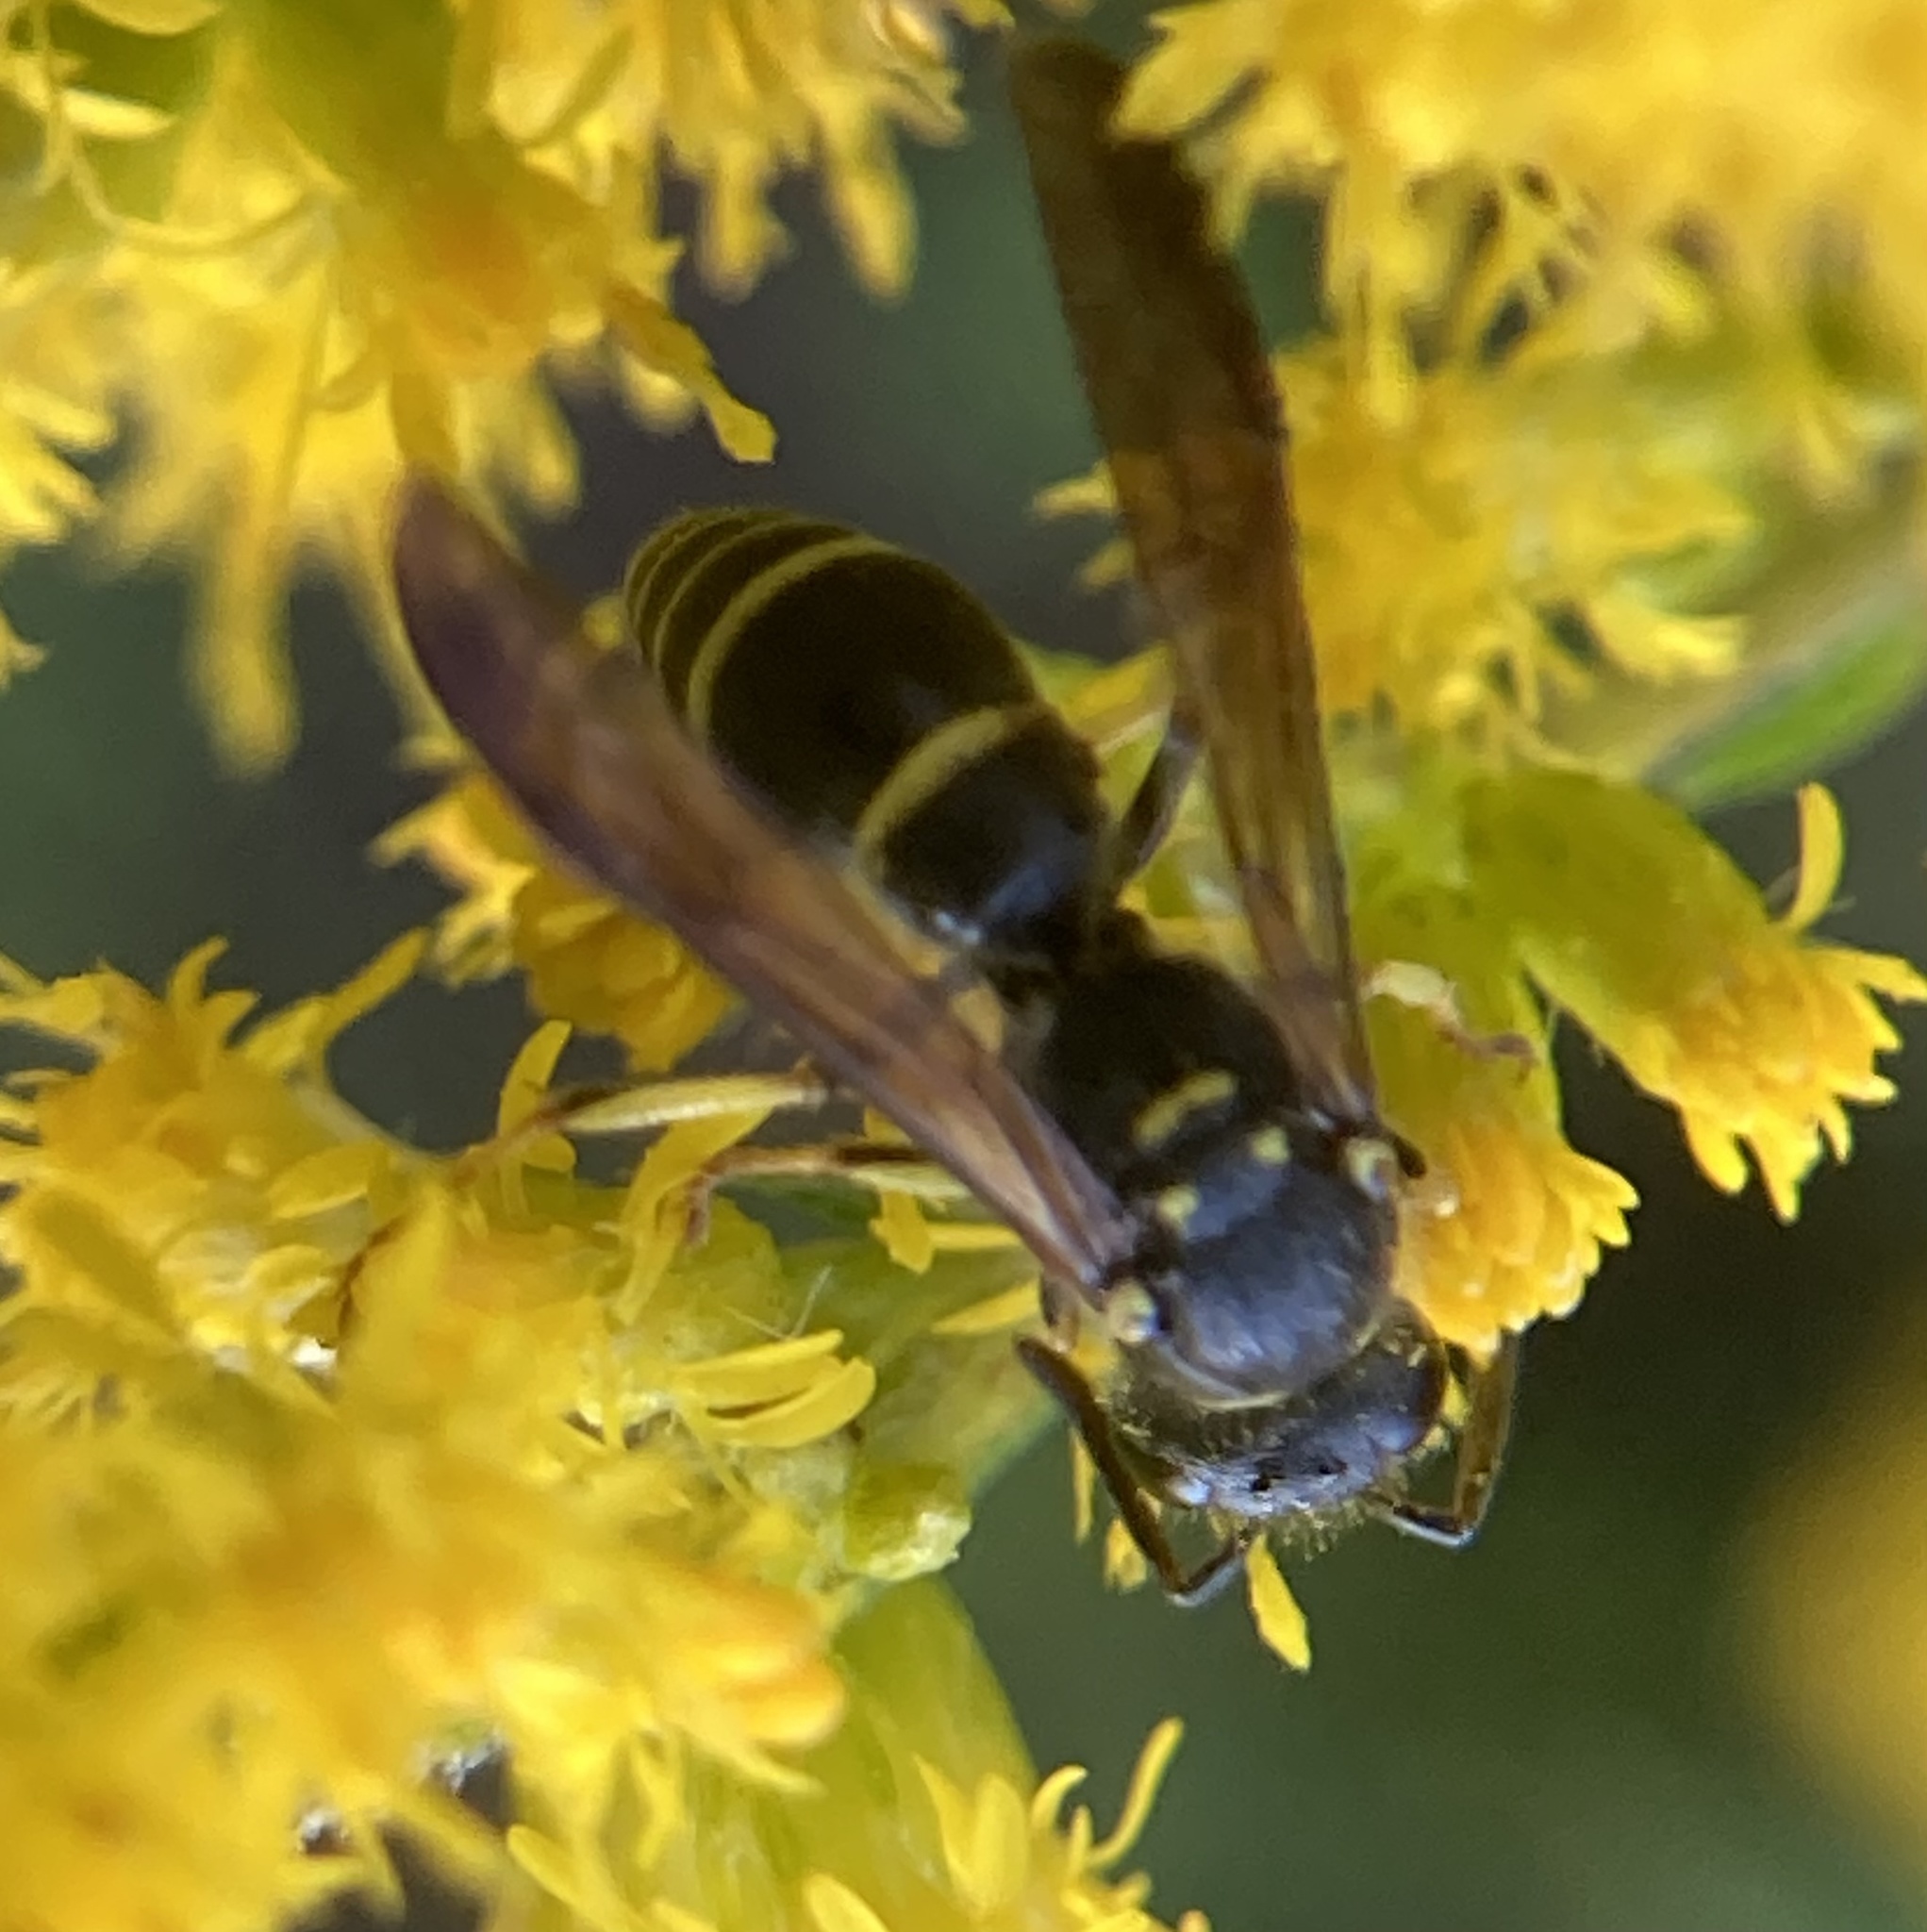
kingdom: Animalia
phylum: Arthropoda
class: Insecta
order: Hymenoptera
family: Vespidae
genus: Ancistrocerus
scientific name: Ancistrocerus adiabatus
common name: Bramble mason wasp
